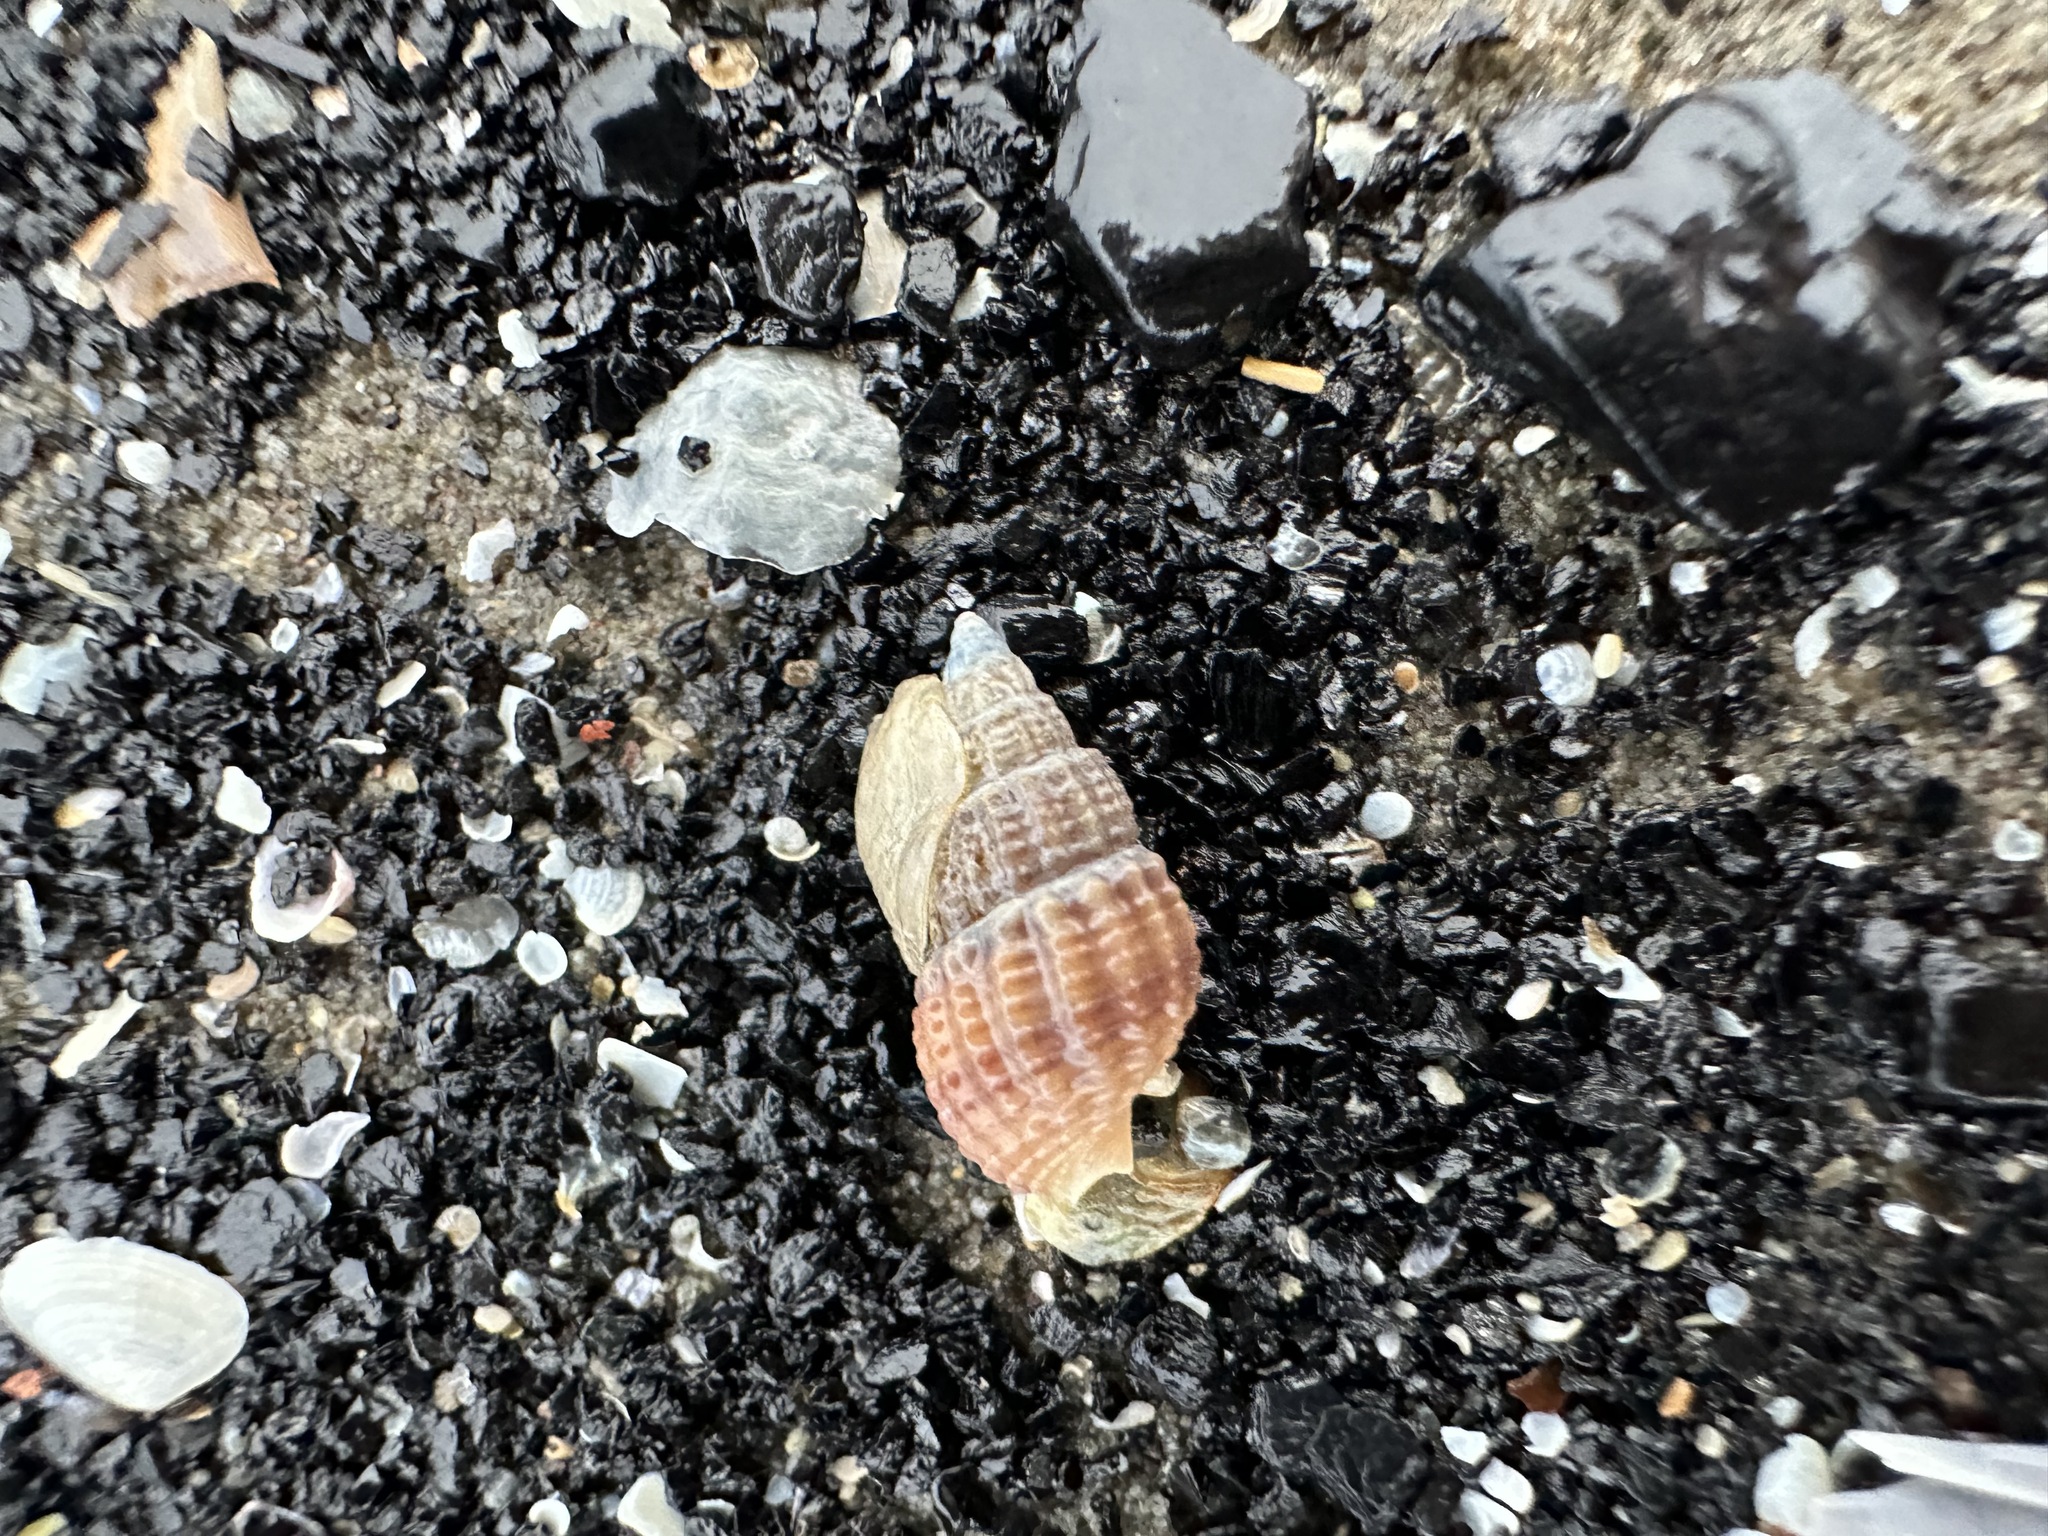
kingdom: Animalia
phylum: Mollusca
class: Gastropoda
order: Neogastropoda
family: Nassariidae
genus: Ilyanassa
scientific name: Ilyanassa trivittata
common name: Three-line mudsnail
